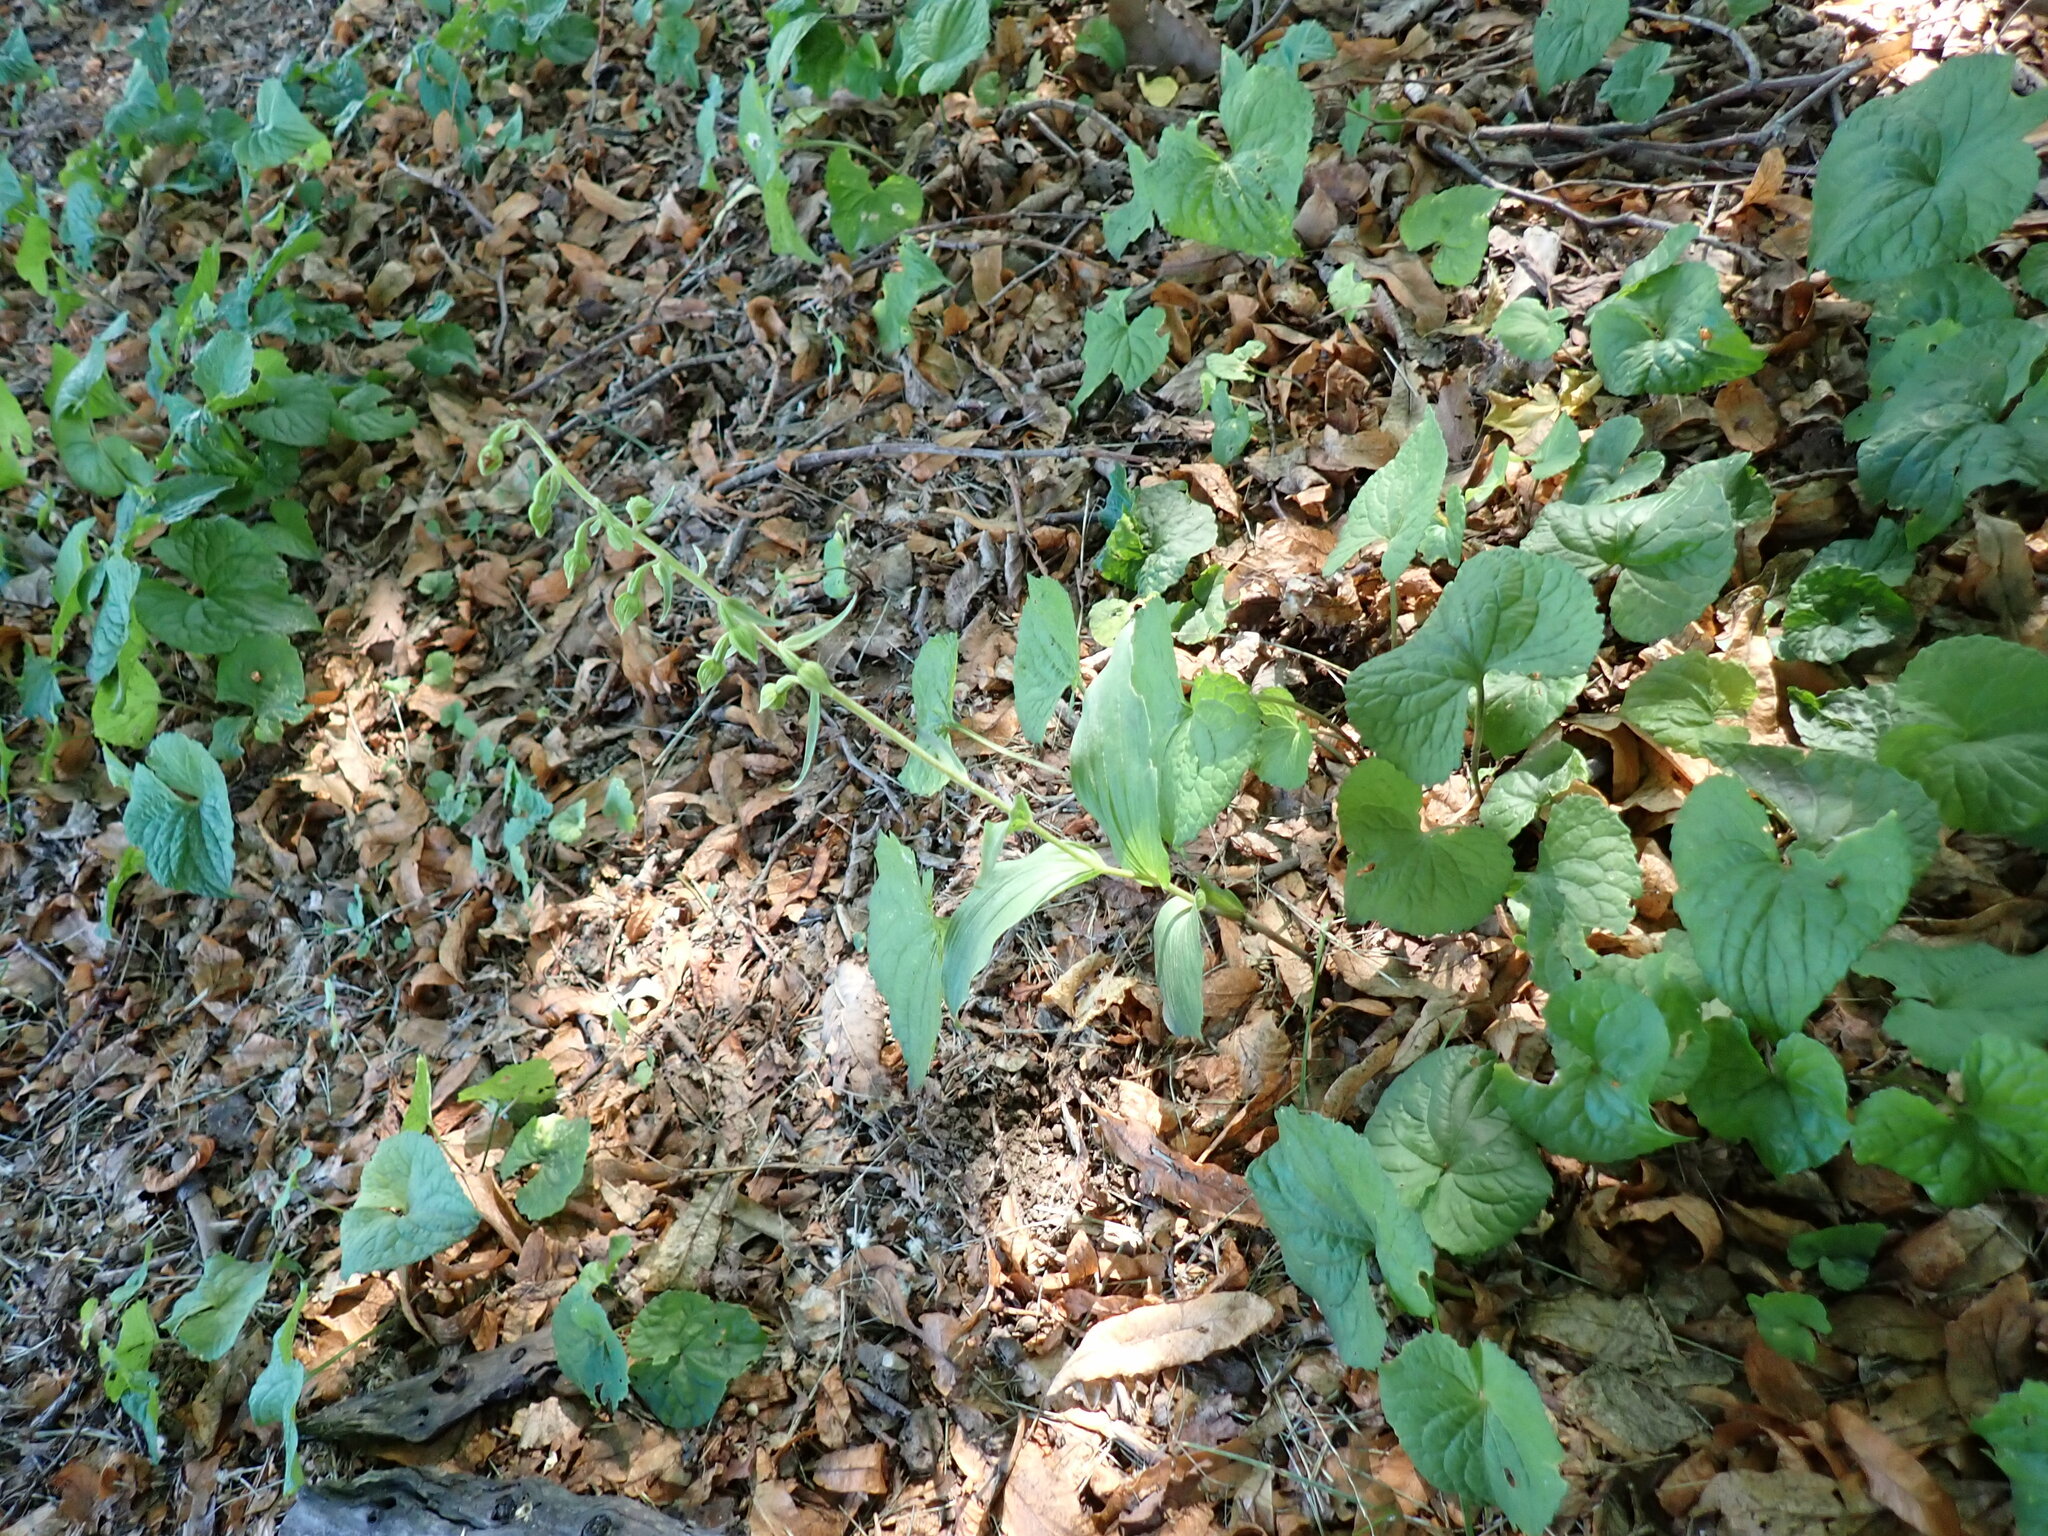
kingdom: Plantae
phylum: Tracheophyta
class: Liliopsida
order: Asparagales
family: Orchidaceae
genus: Epipactis
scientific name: Epipactis helleborine
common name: Broad-leaved helleborine
